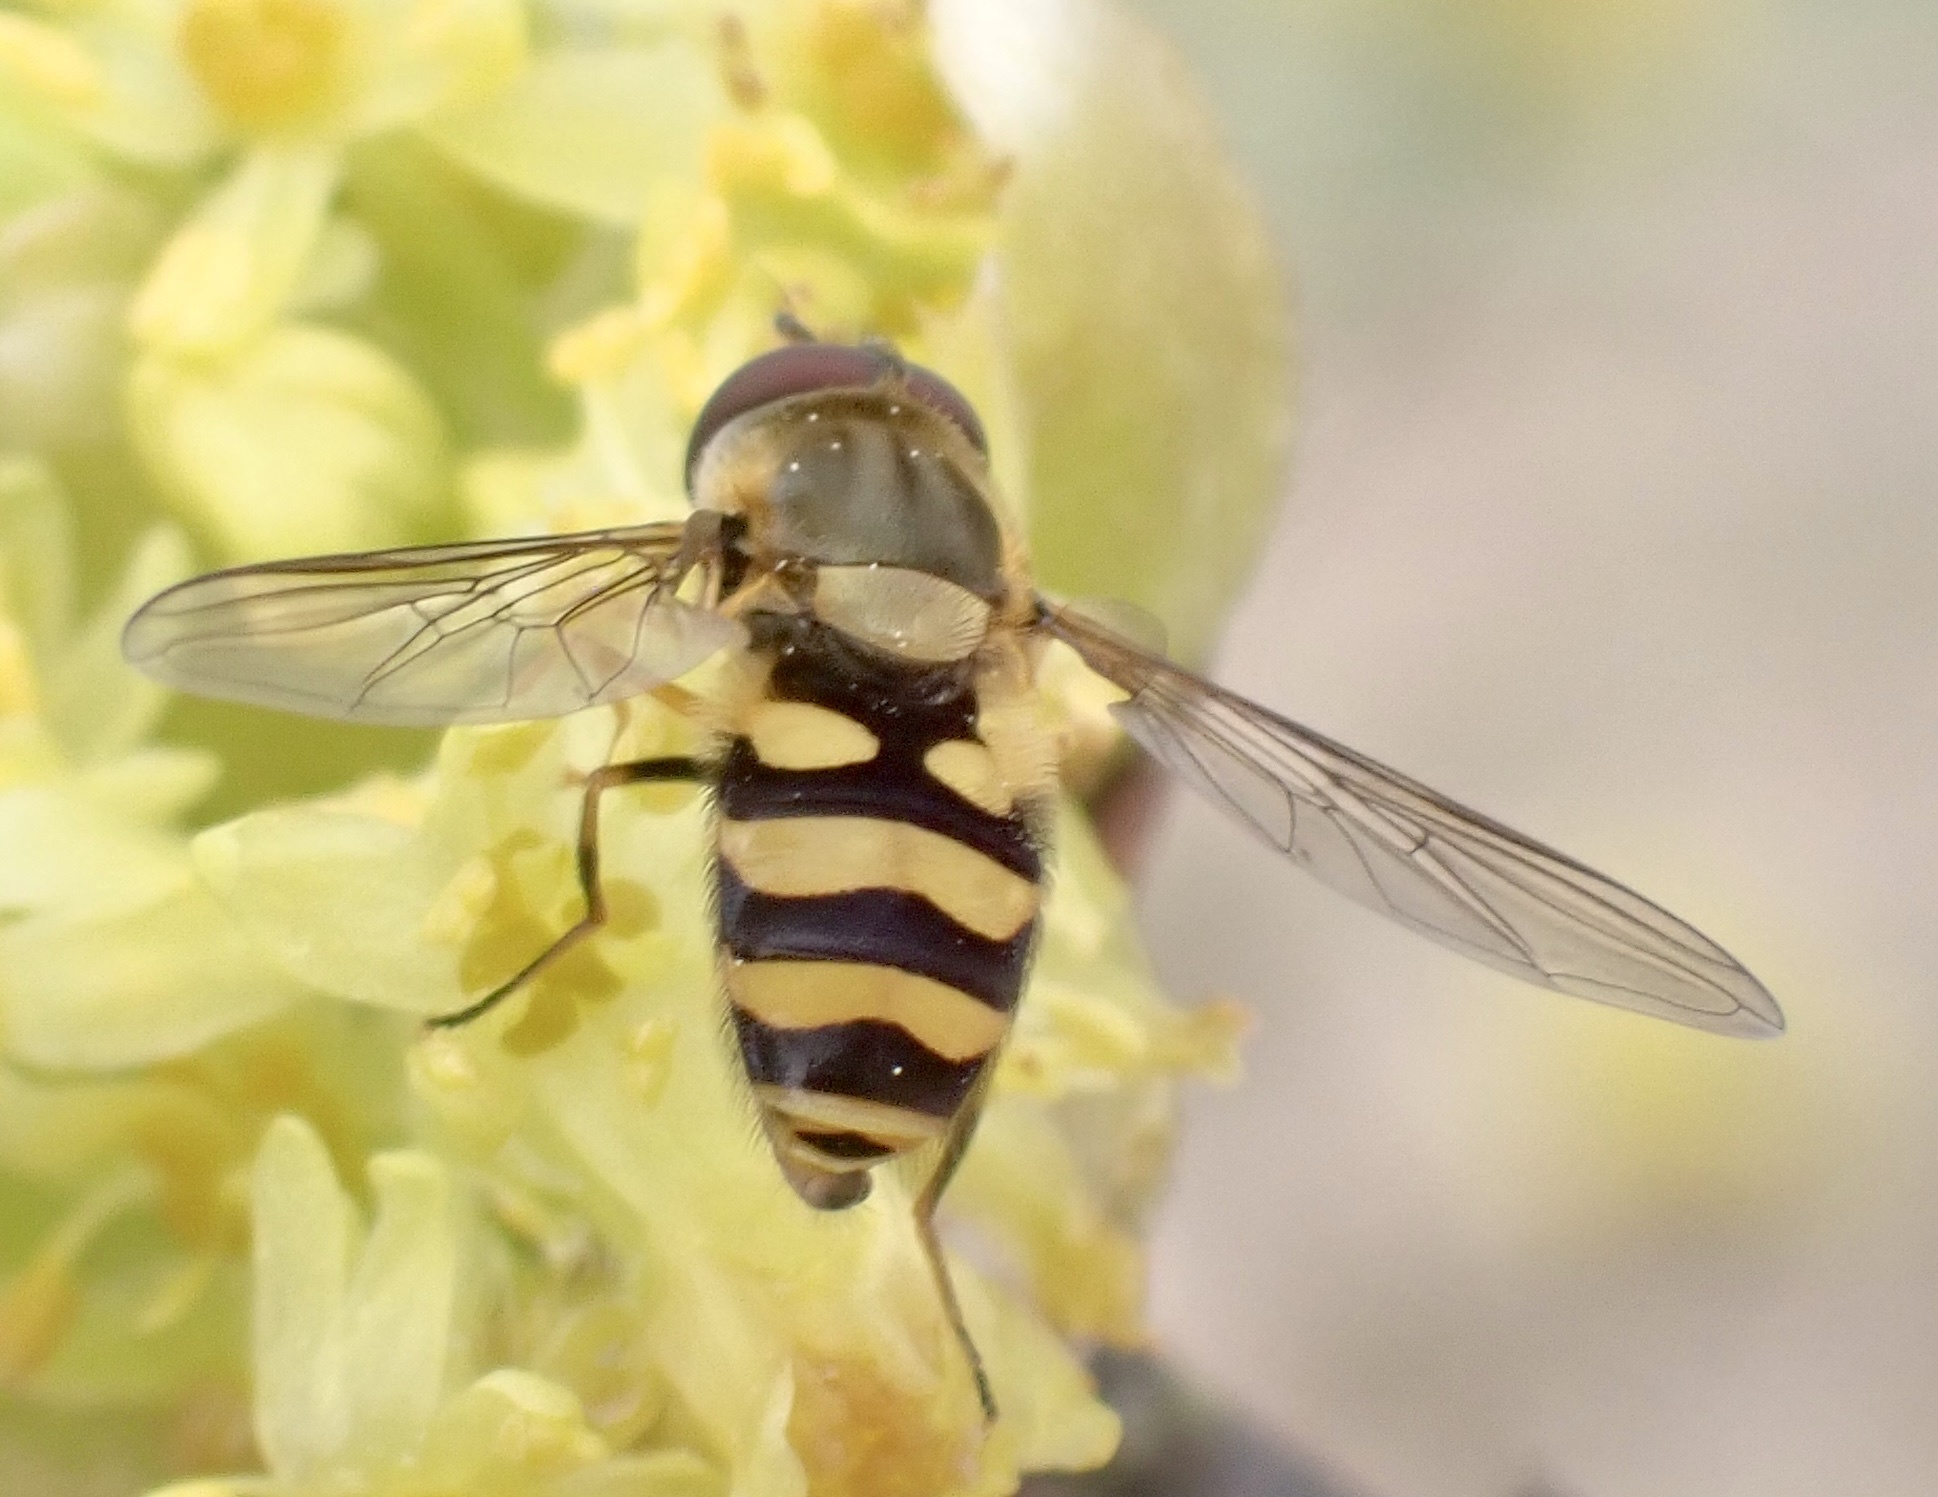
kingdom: Animalia
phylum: Arthropoda
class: Insecta
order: Diptera
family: Syrphidae
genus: Syrphus
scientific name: Syrphus
